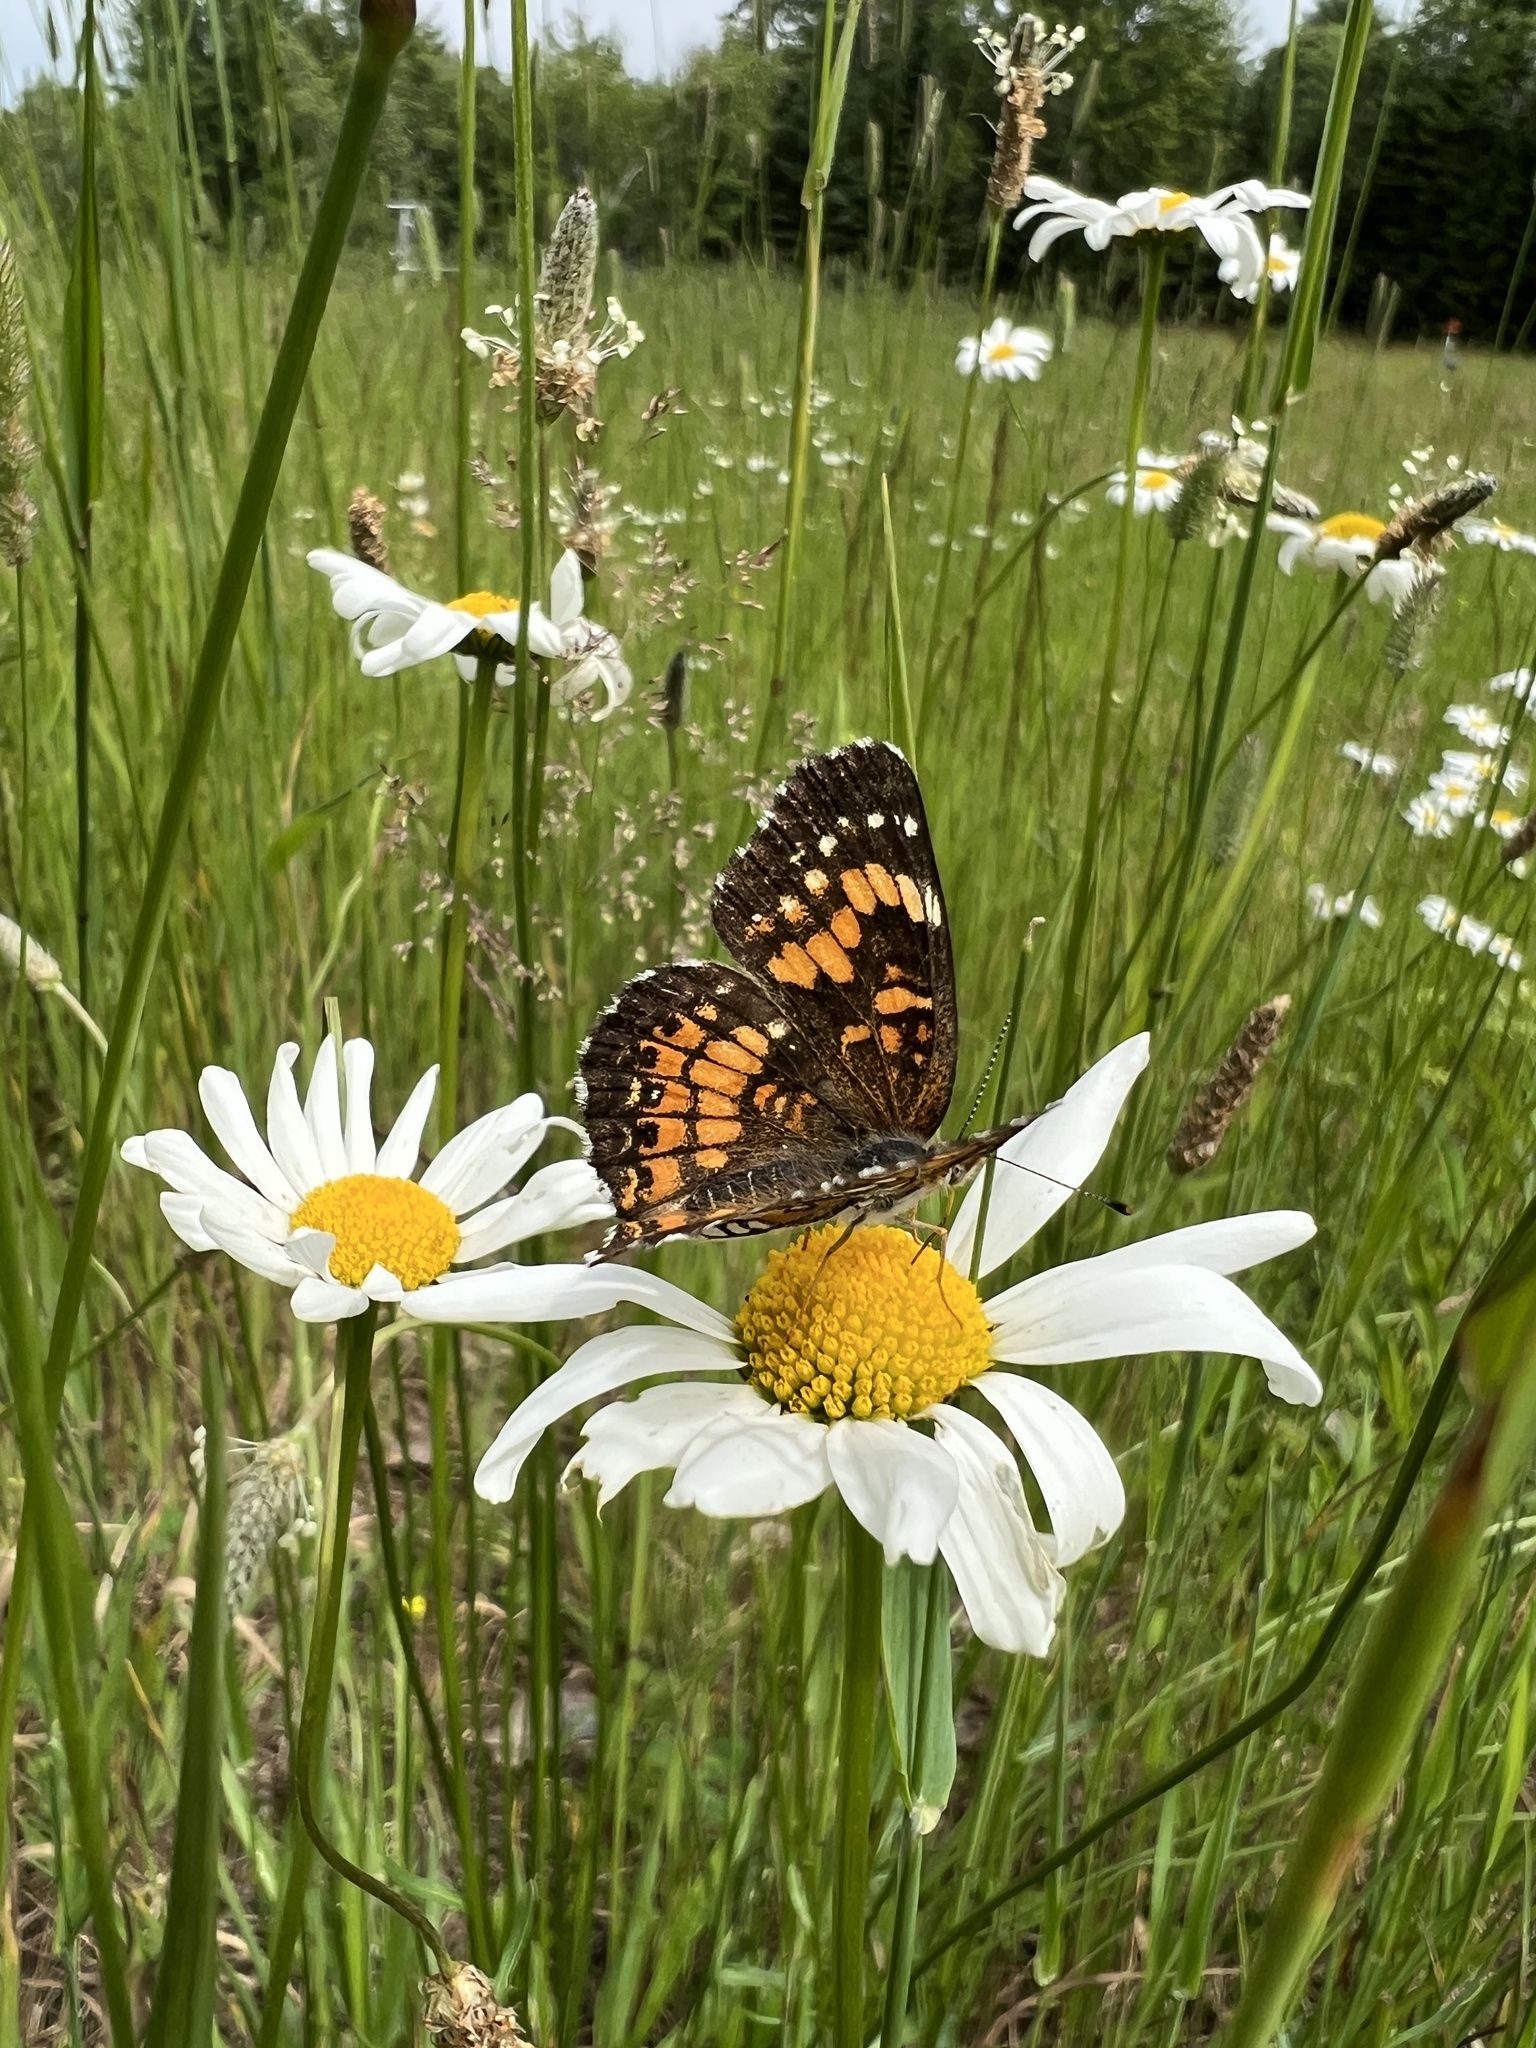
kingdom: Animalia
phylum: Arthropoda
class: Insecta
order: Lepidoptera
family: Nymphalidae
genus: Chlosyne
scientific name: Chlosyne harrisii
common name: Harris's checkerspot
